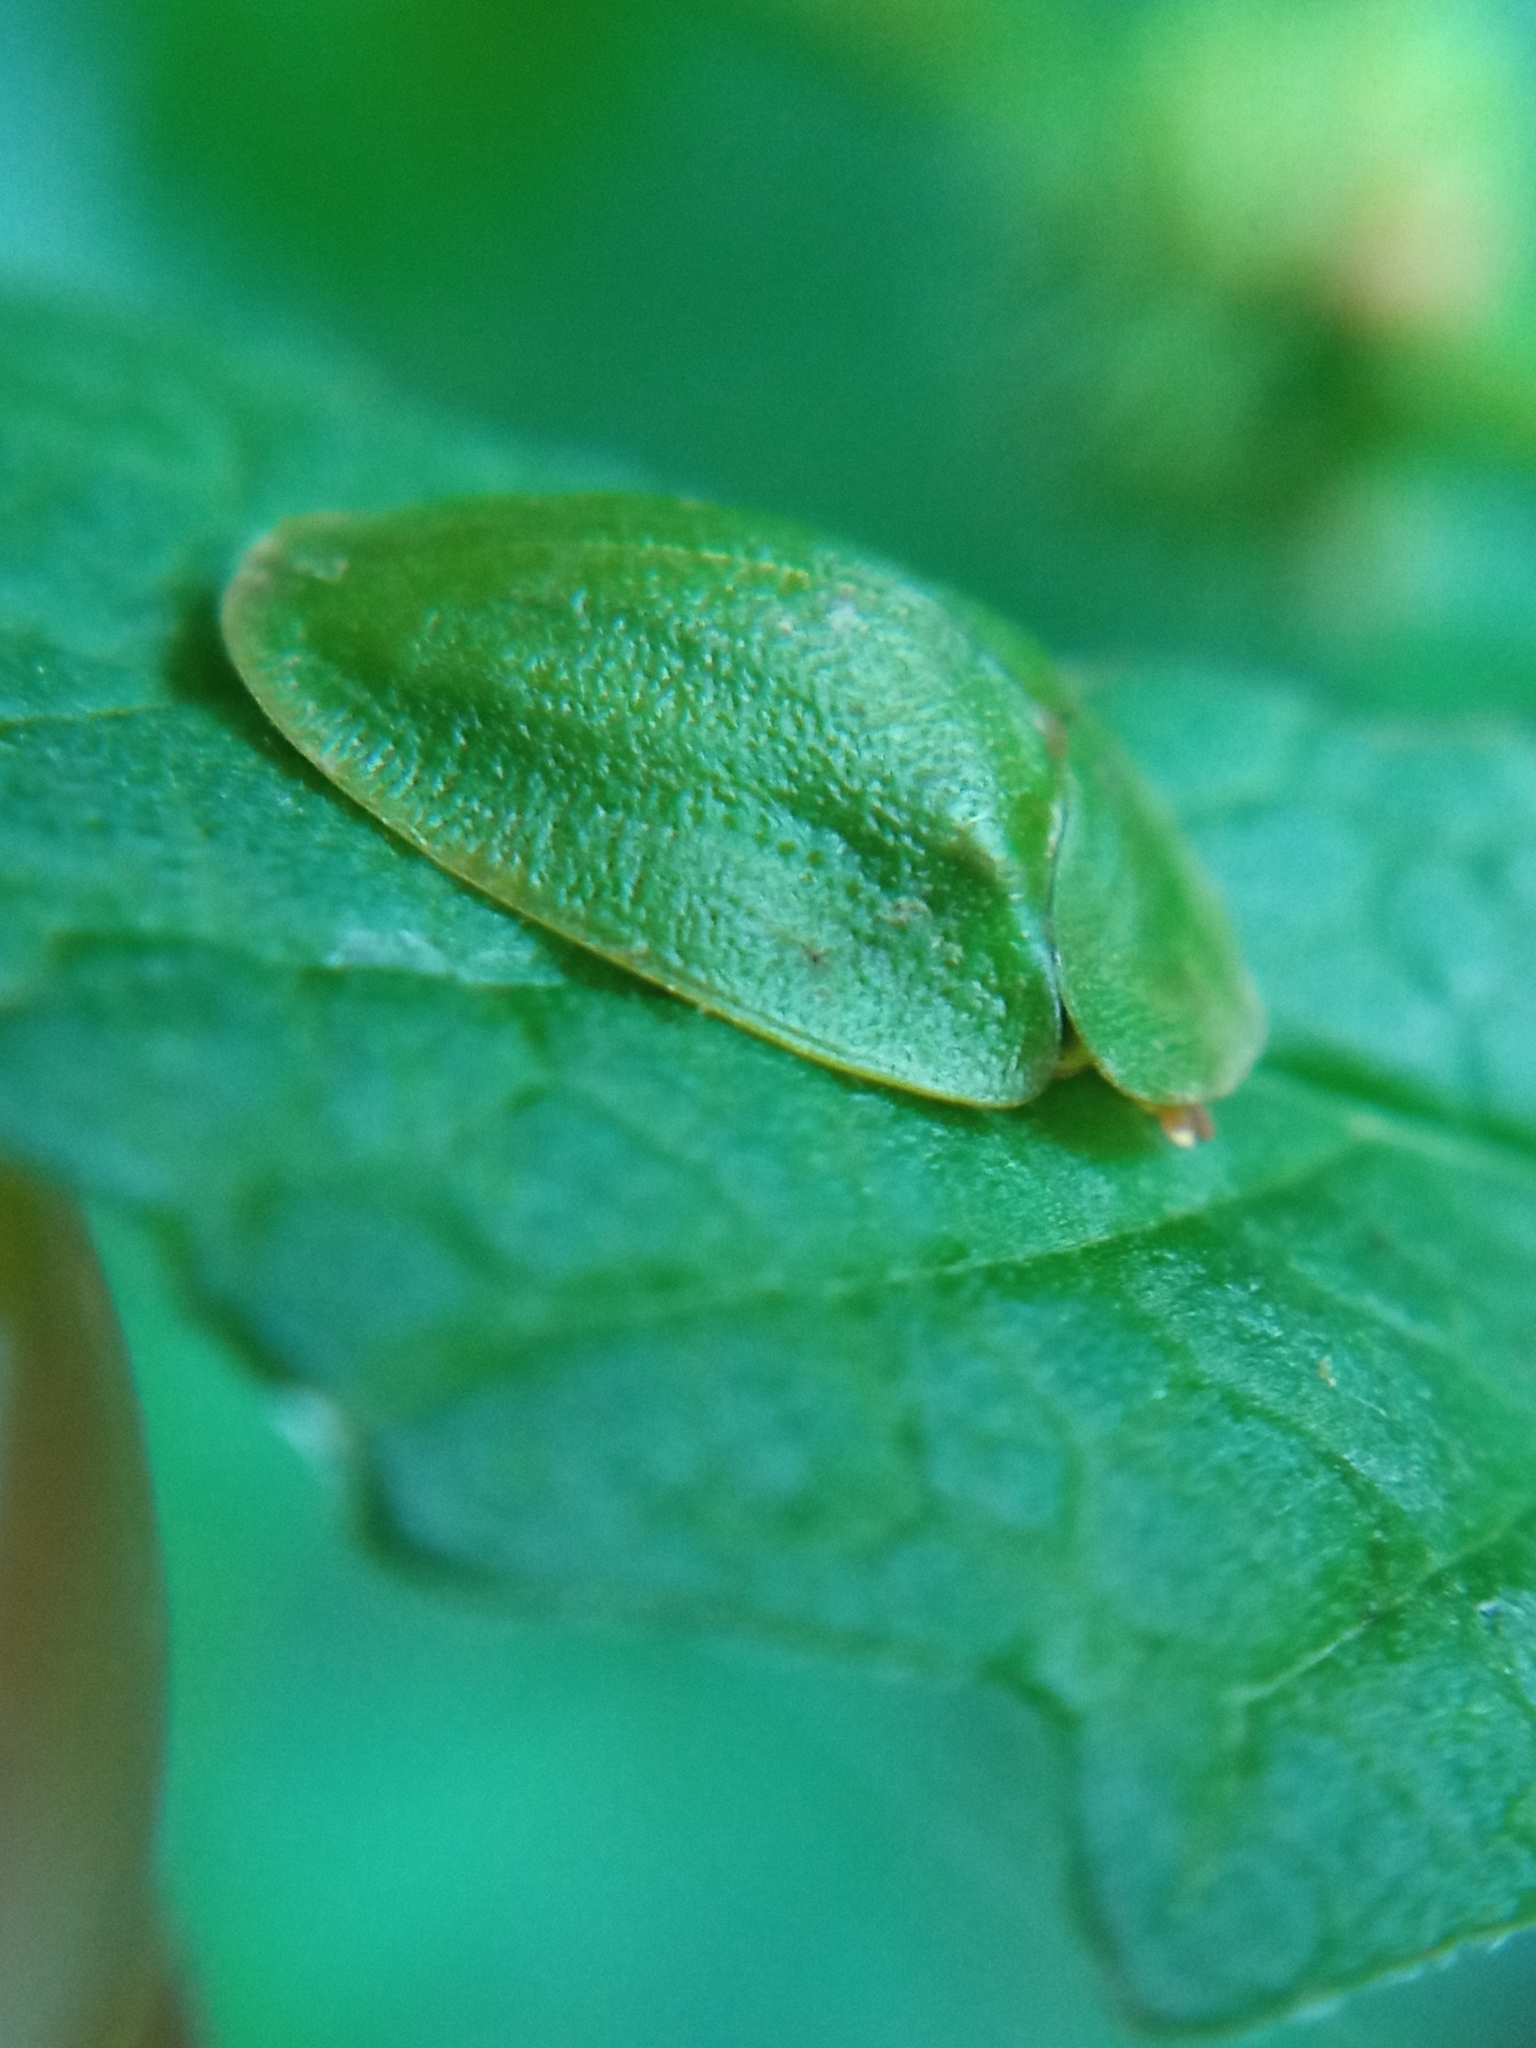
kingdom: Animalia
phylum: Arthropoda
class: Insecta
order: Coleoptera
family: Chrysomelidae
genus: Cassida
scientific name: Cassida viridis
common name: Green tortoise beetle
